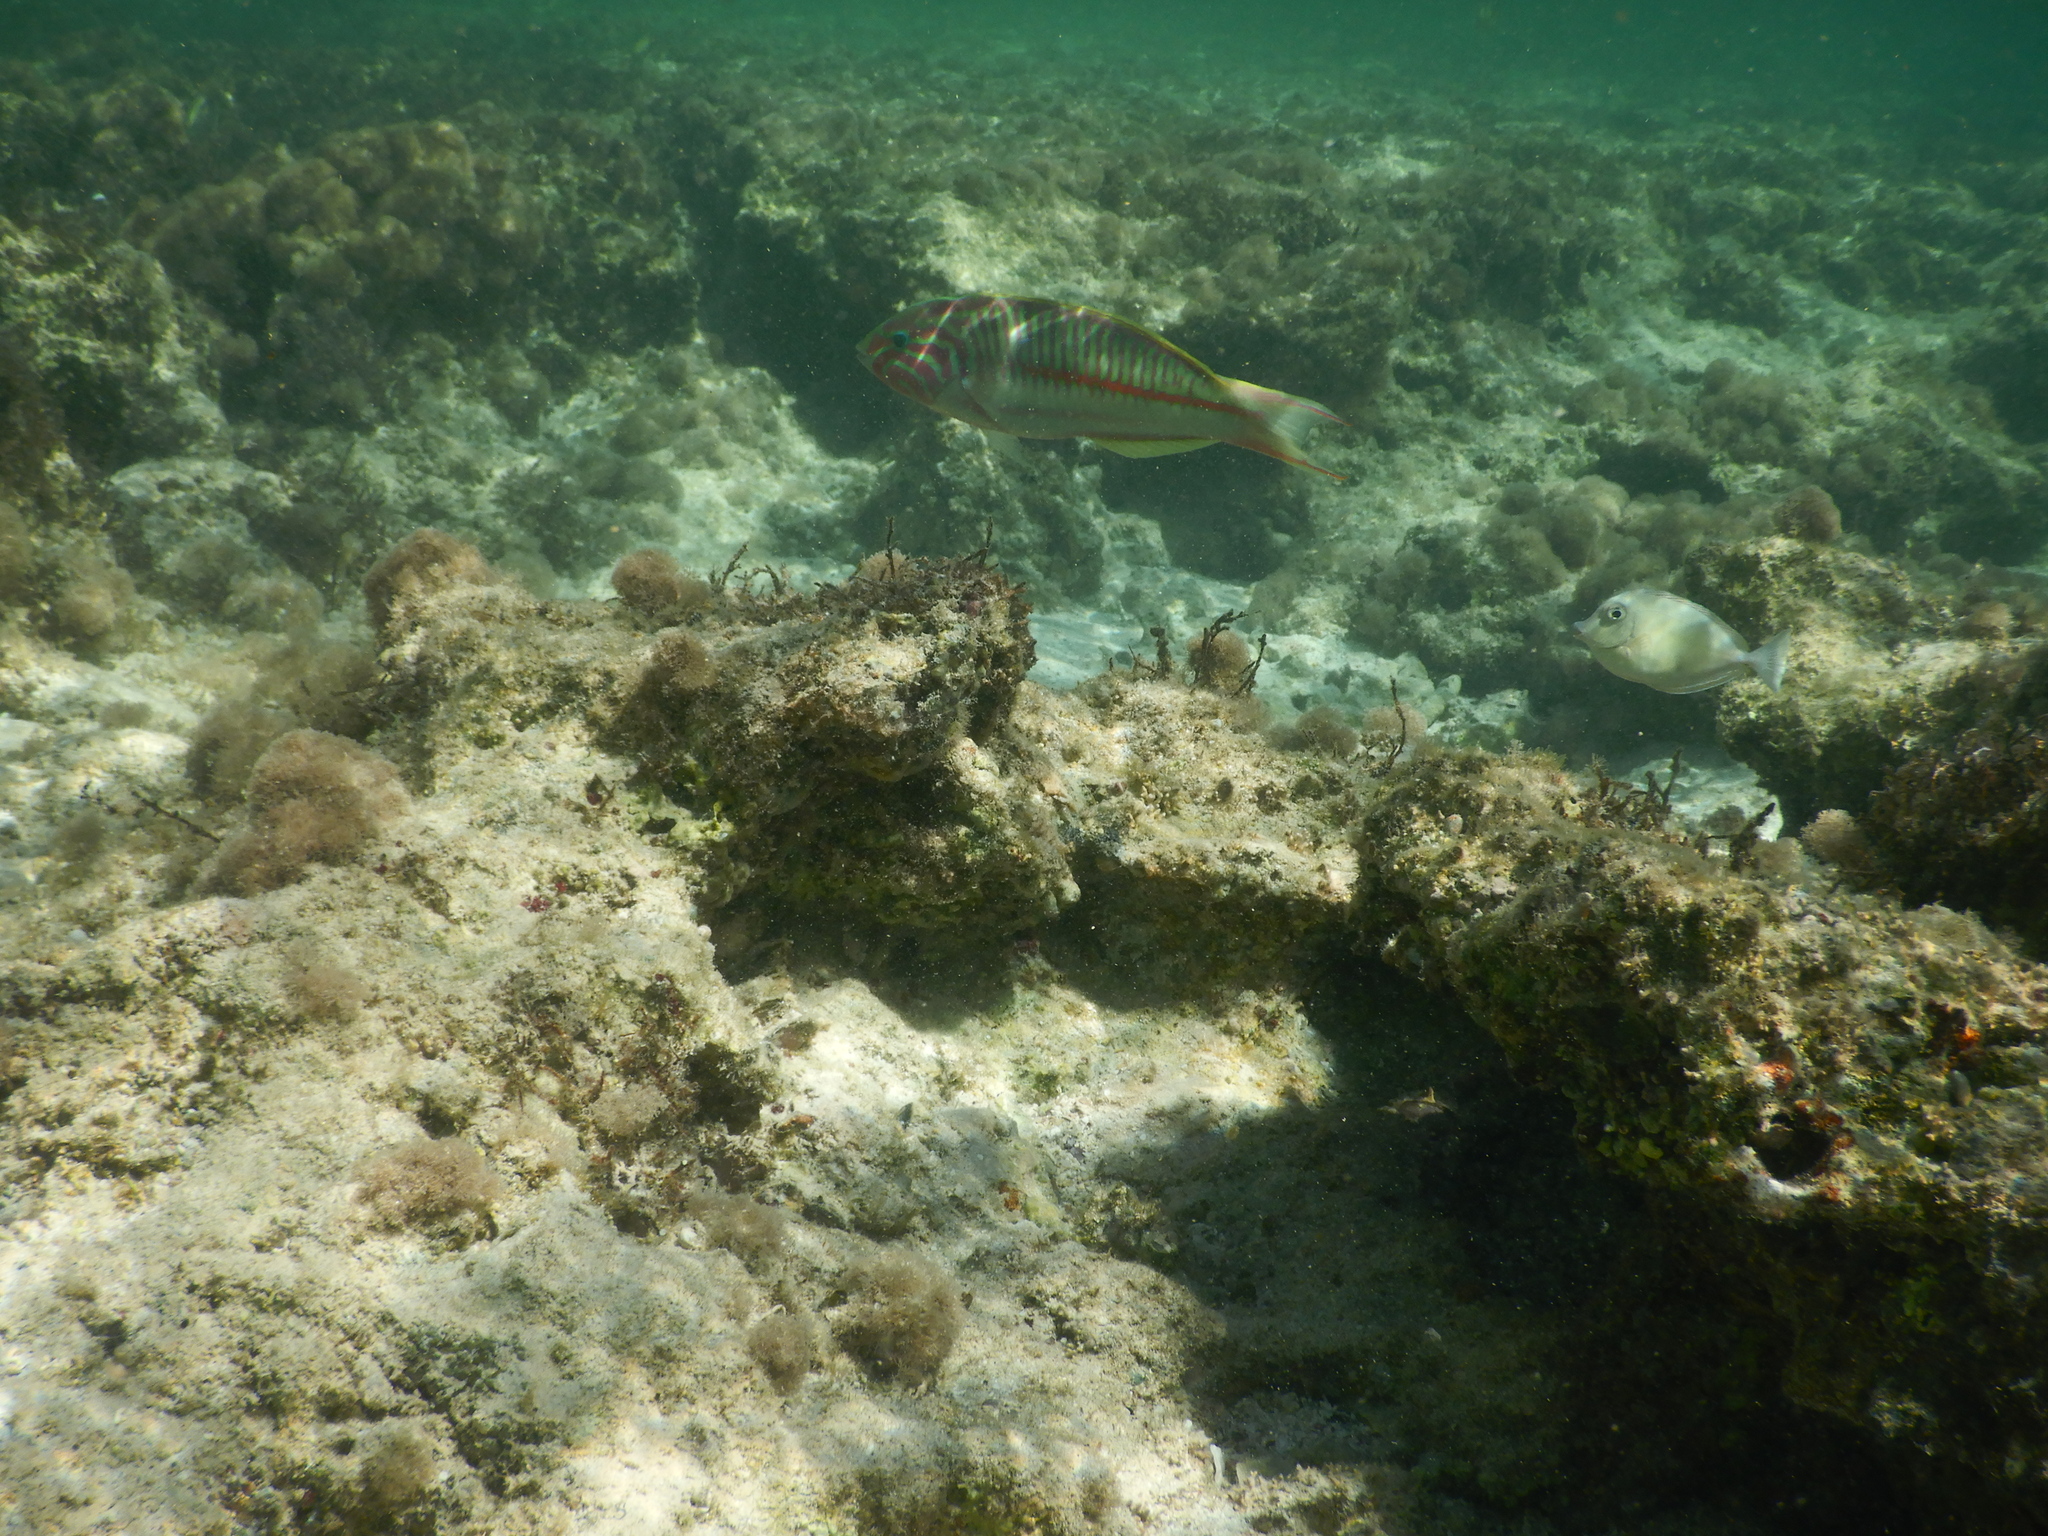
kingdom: Animalia
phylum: Chordata
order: Perciformes
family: Labridae
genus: Thalassoma
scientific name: Thalassoma rueppellii
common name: Klunzinger's wrasse
